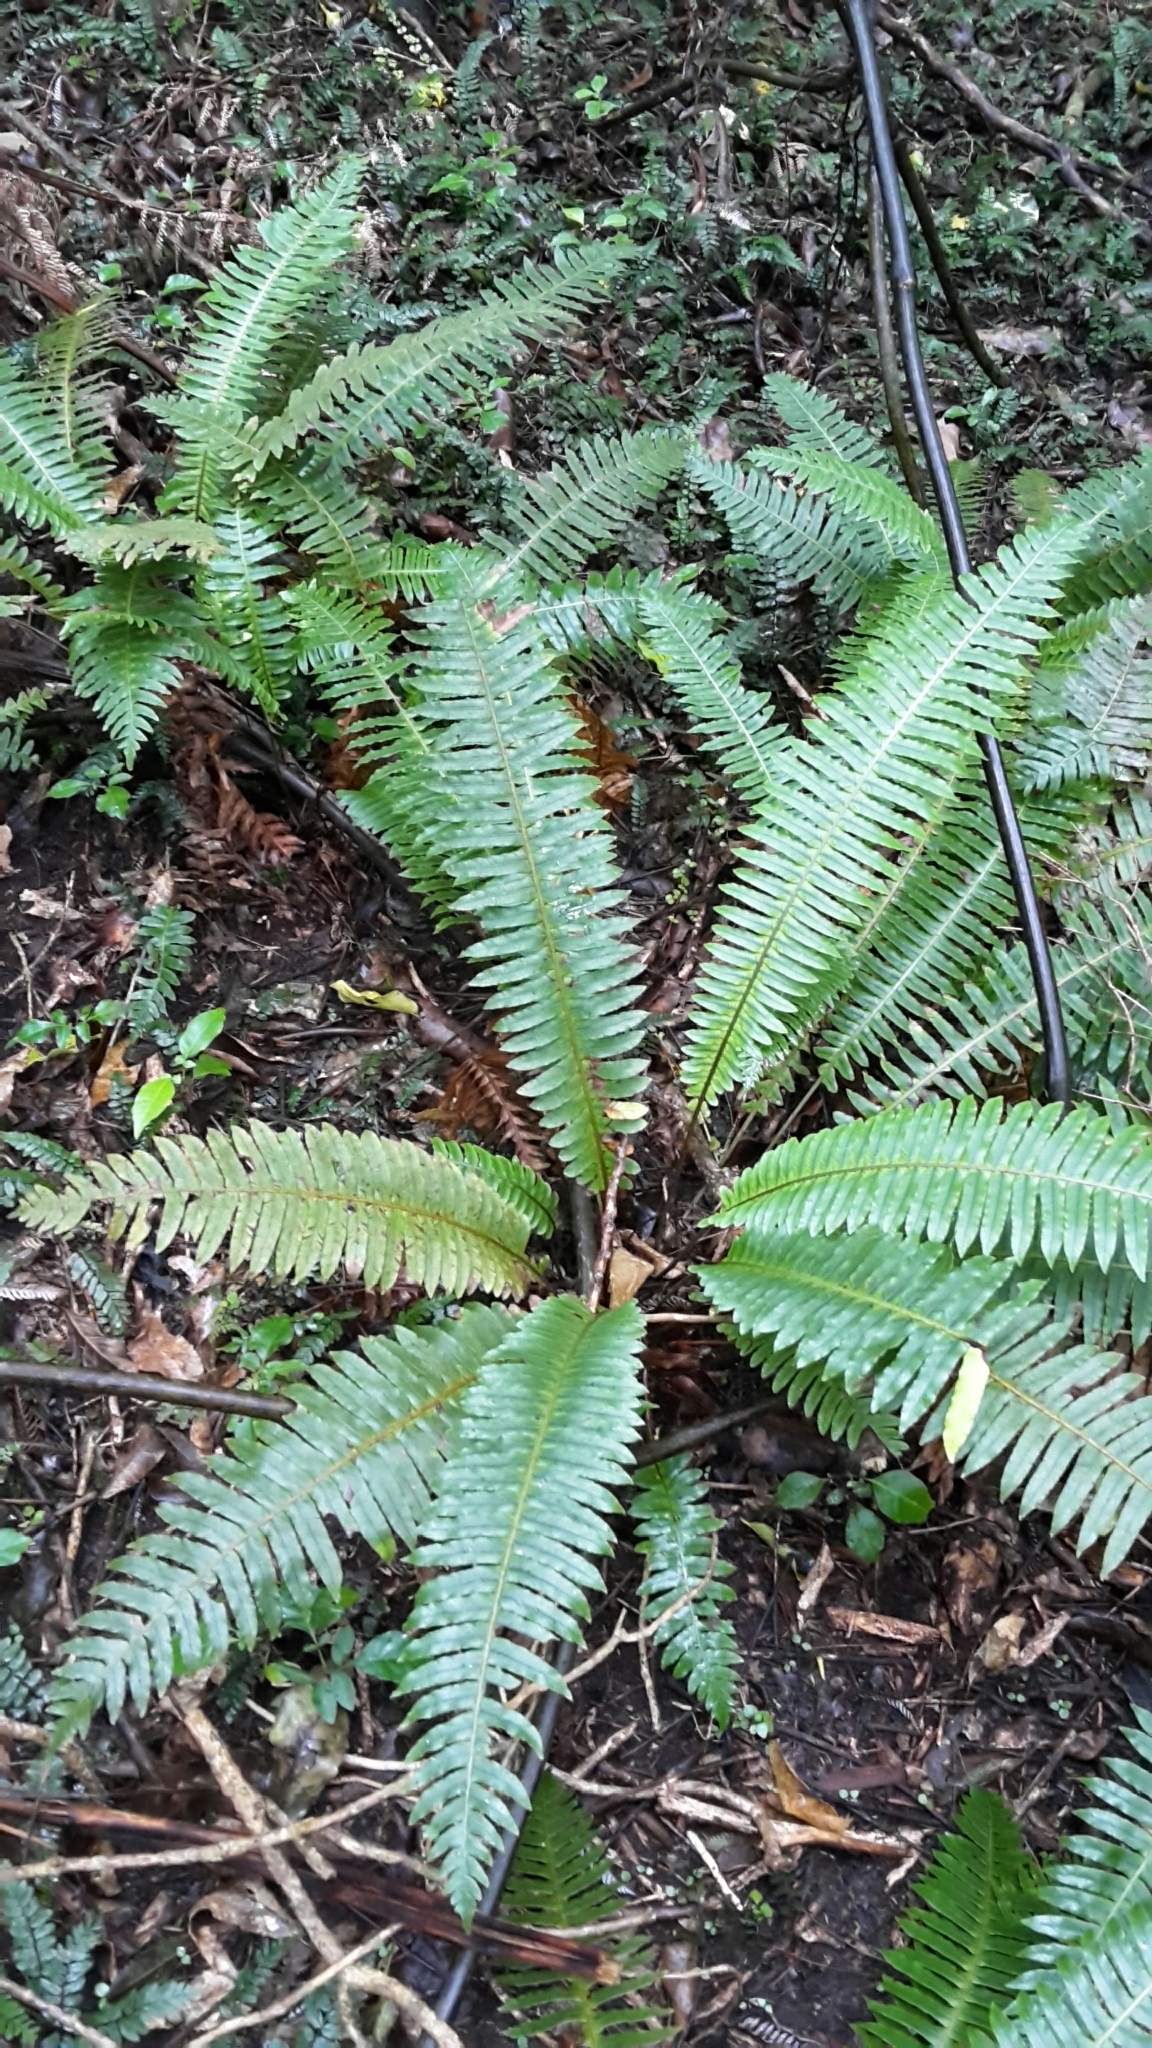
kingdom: Plantae
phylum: Tracheophyta
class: Polypodiopsida
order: Polypodiales
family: Blechnaceae
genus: Lomaria
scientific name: Lomaria discolor
